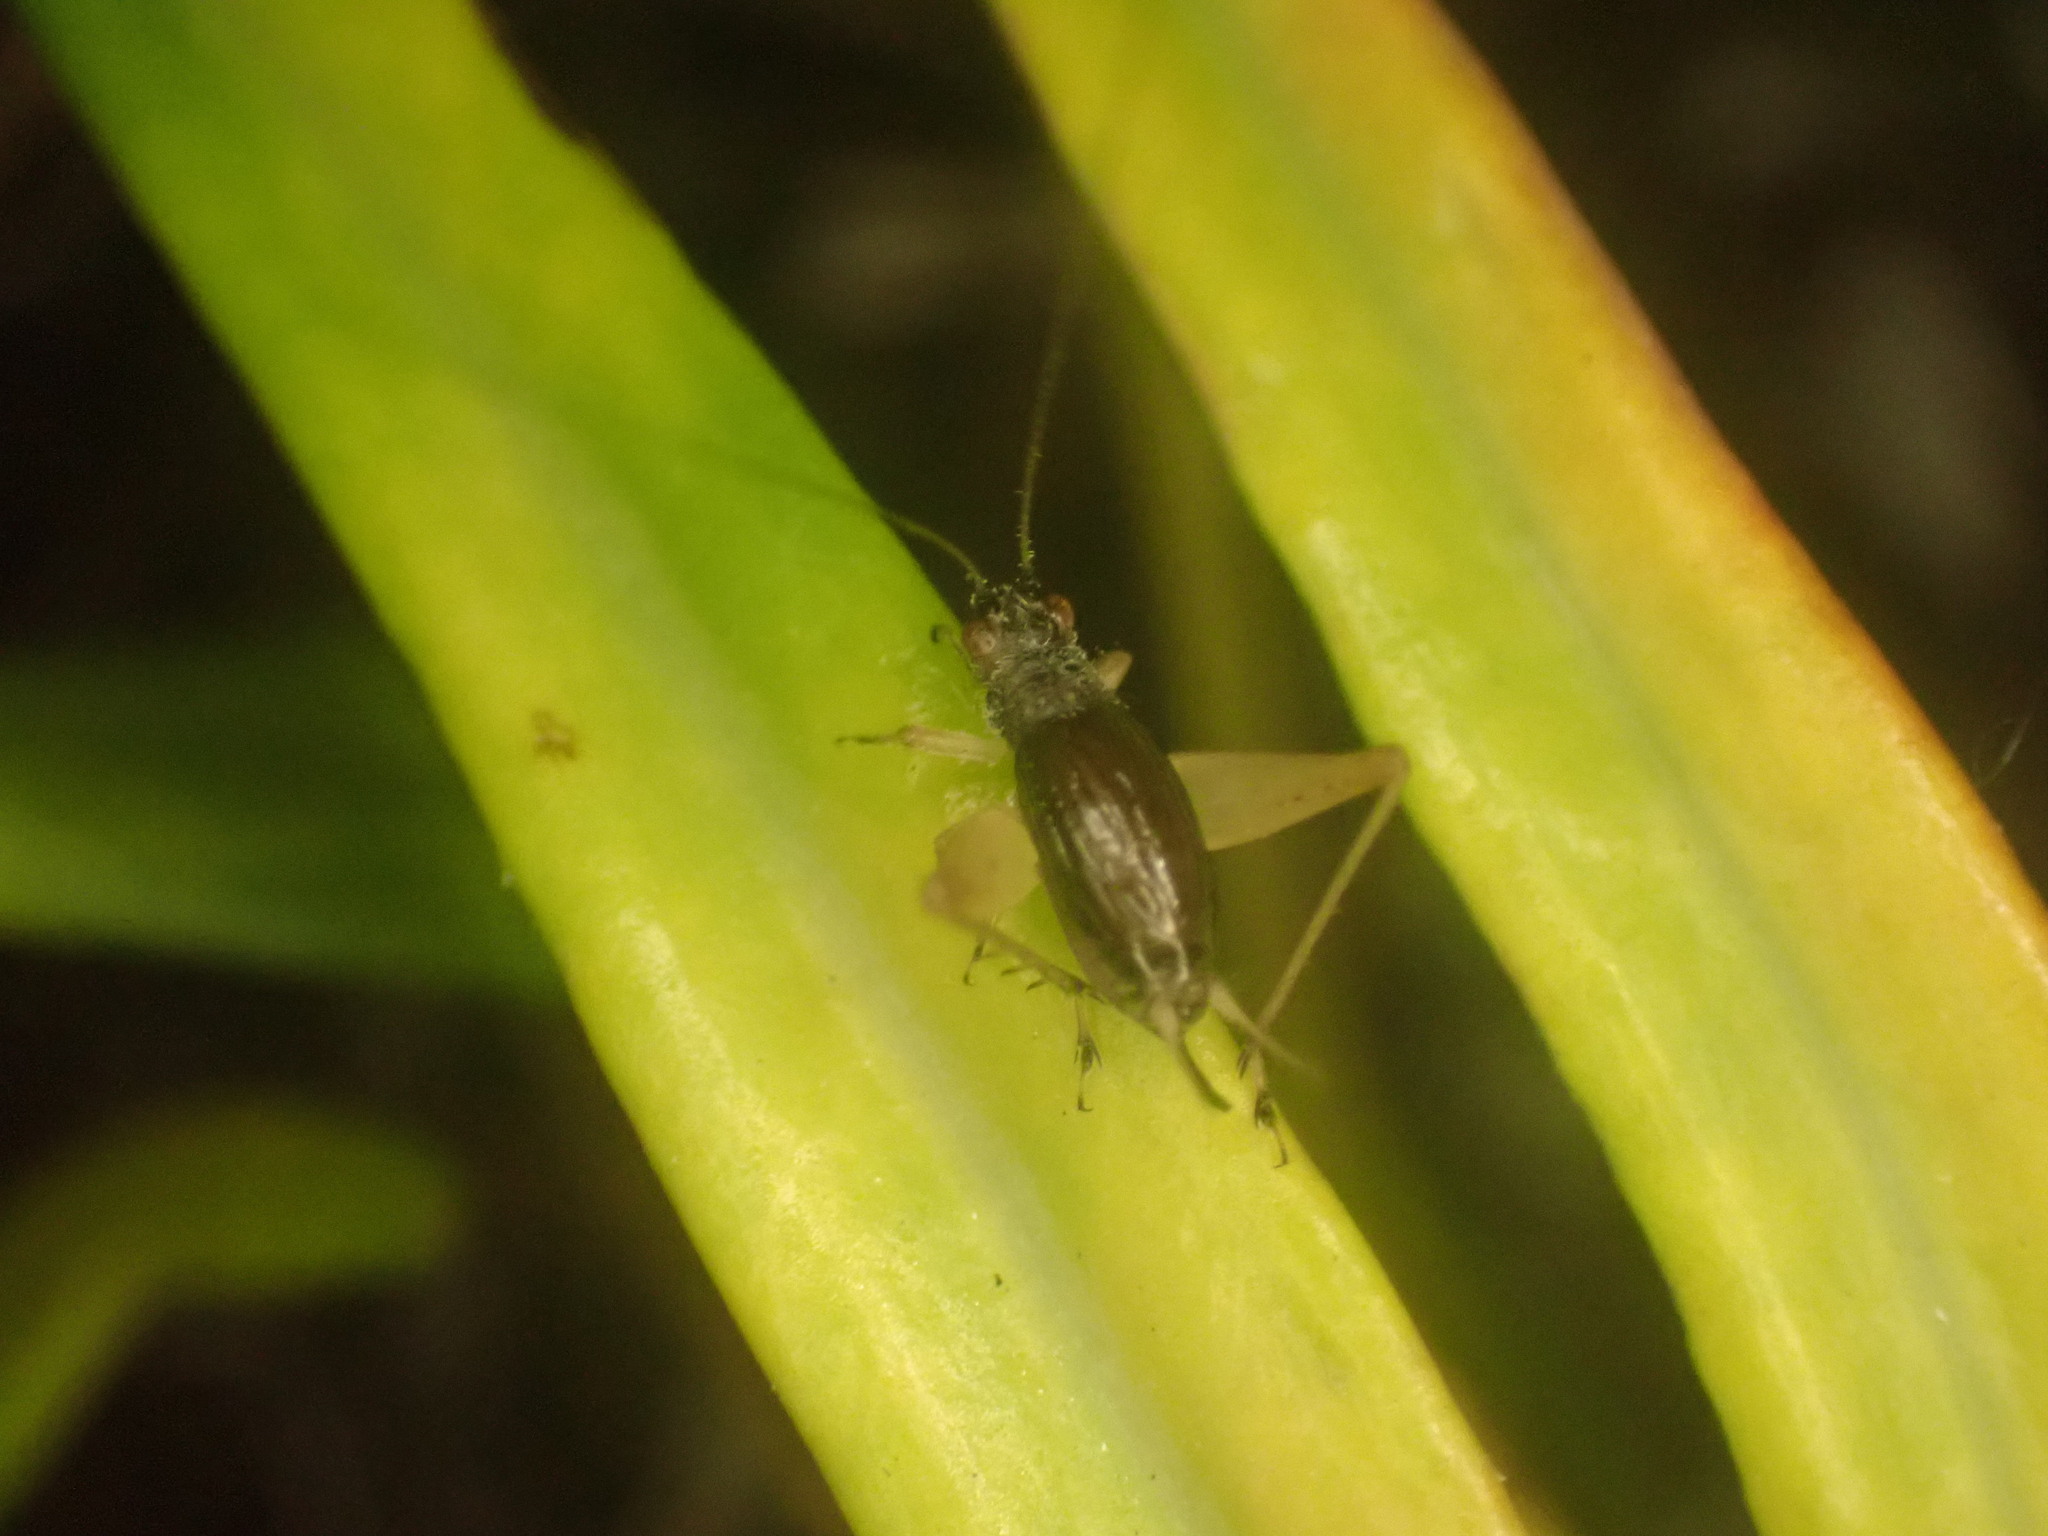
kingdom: Animalia
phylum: Arthropoda
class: Insecta
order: Orthoptera
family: Trigonidiidae
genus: Metioche
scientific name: Metioche maorica
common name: New zealand trig
